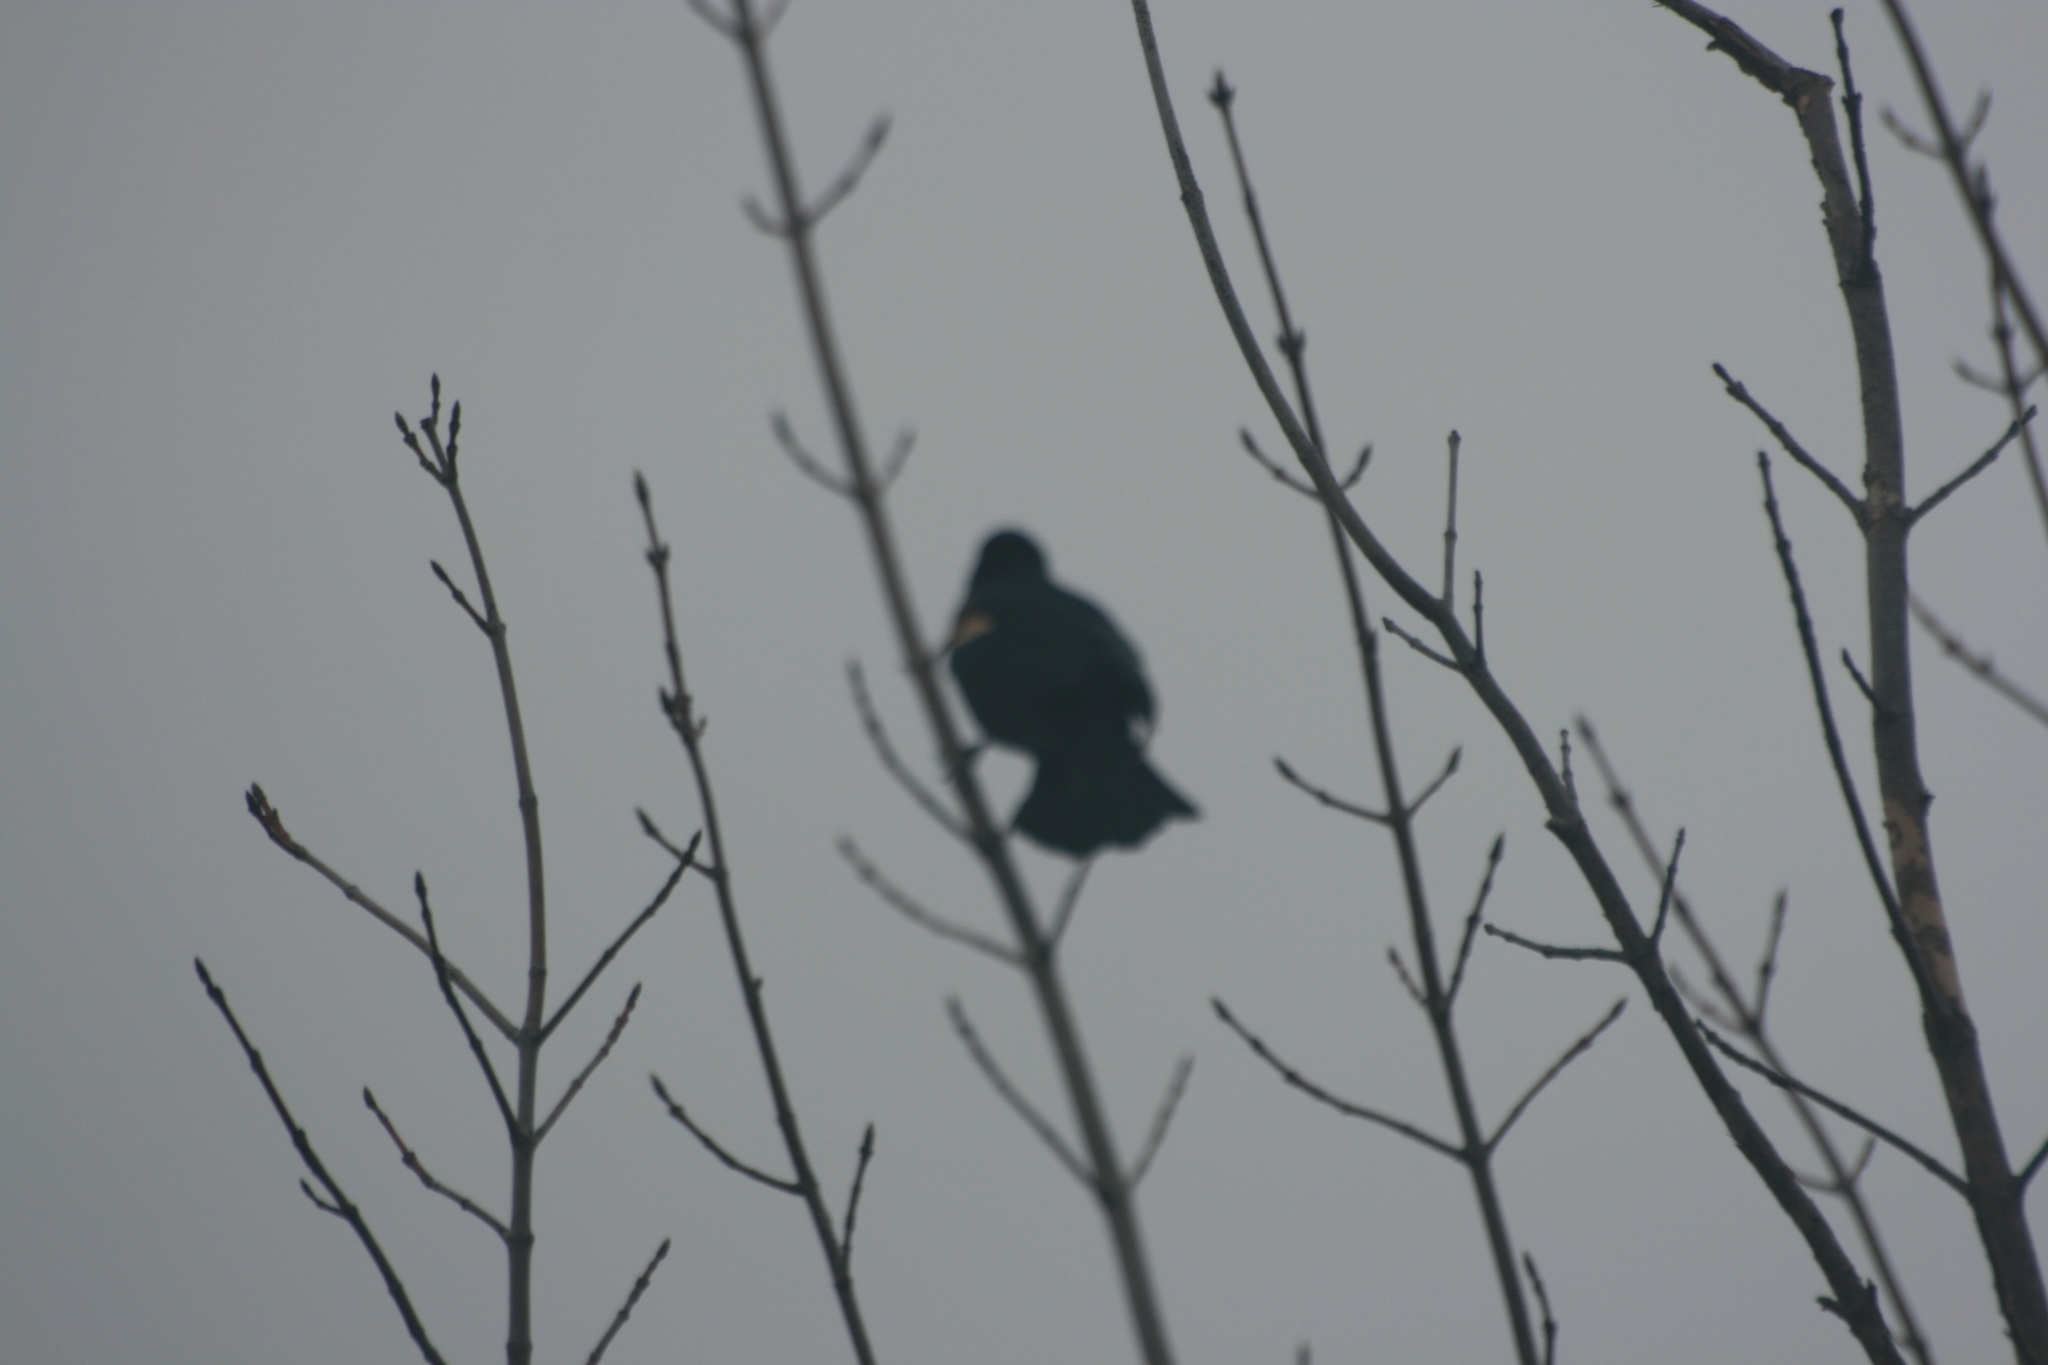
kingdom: Animalia
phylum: Chordata
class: Aves
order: Passeriformes
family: Icteridae
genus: Agelaius
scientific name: Agelaius phoeniceus
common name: Red-winged blackbird
